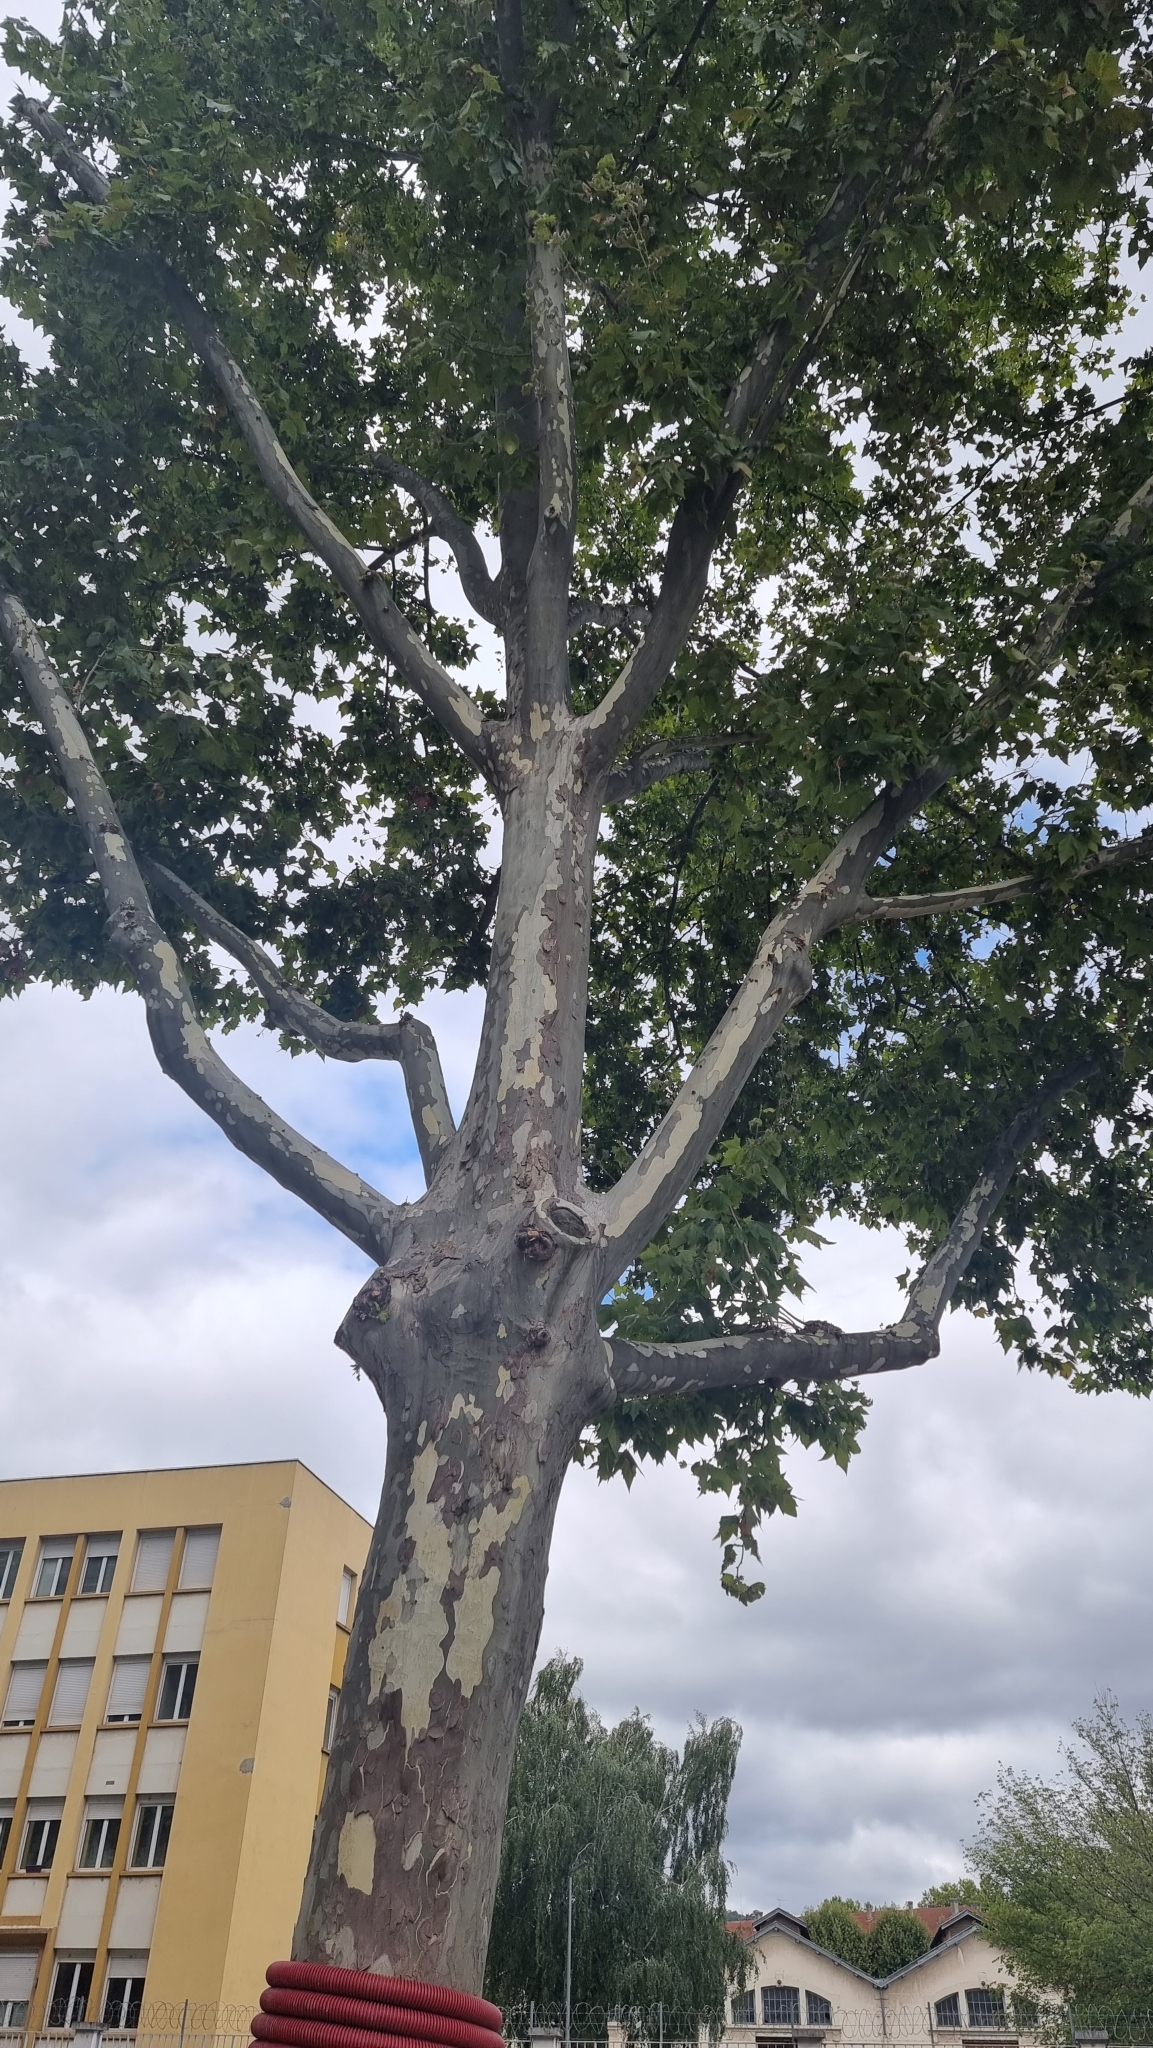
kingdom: Plantae
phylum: Tracheophyta
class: Magnoliopsida
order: Proteales
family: Platanaceae
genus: Platanus
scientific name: Platanus hispanica
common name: London plane
